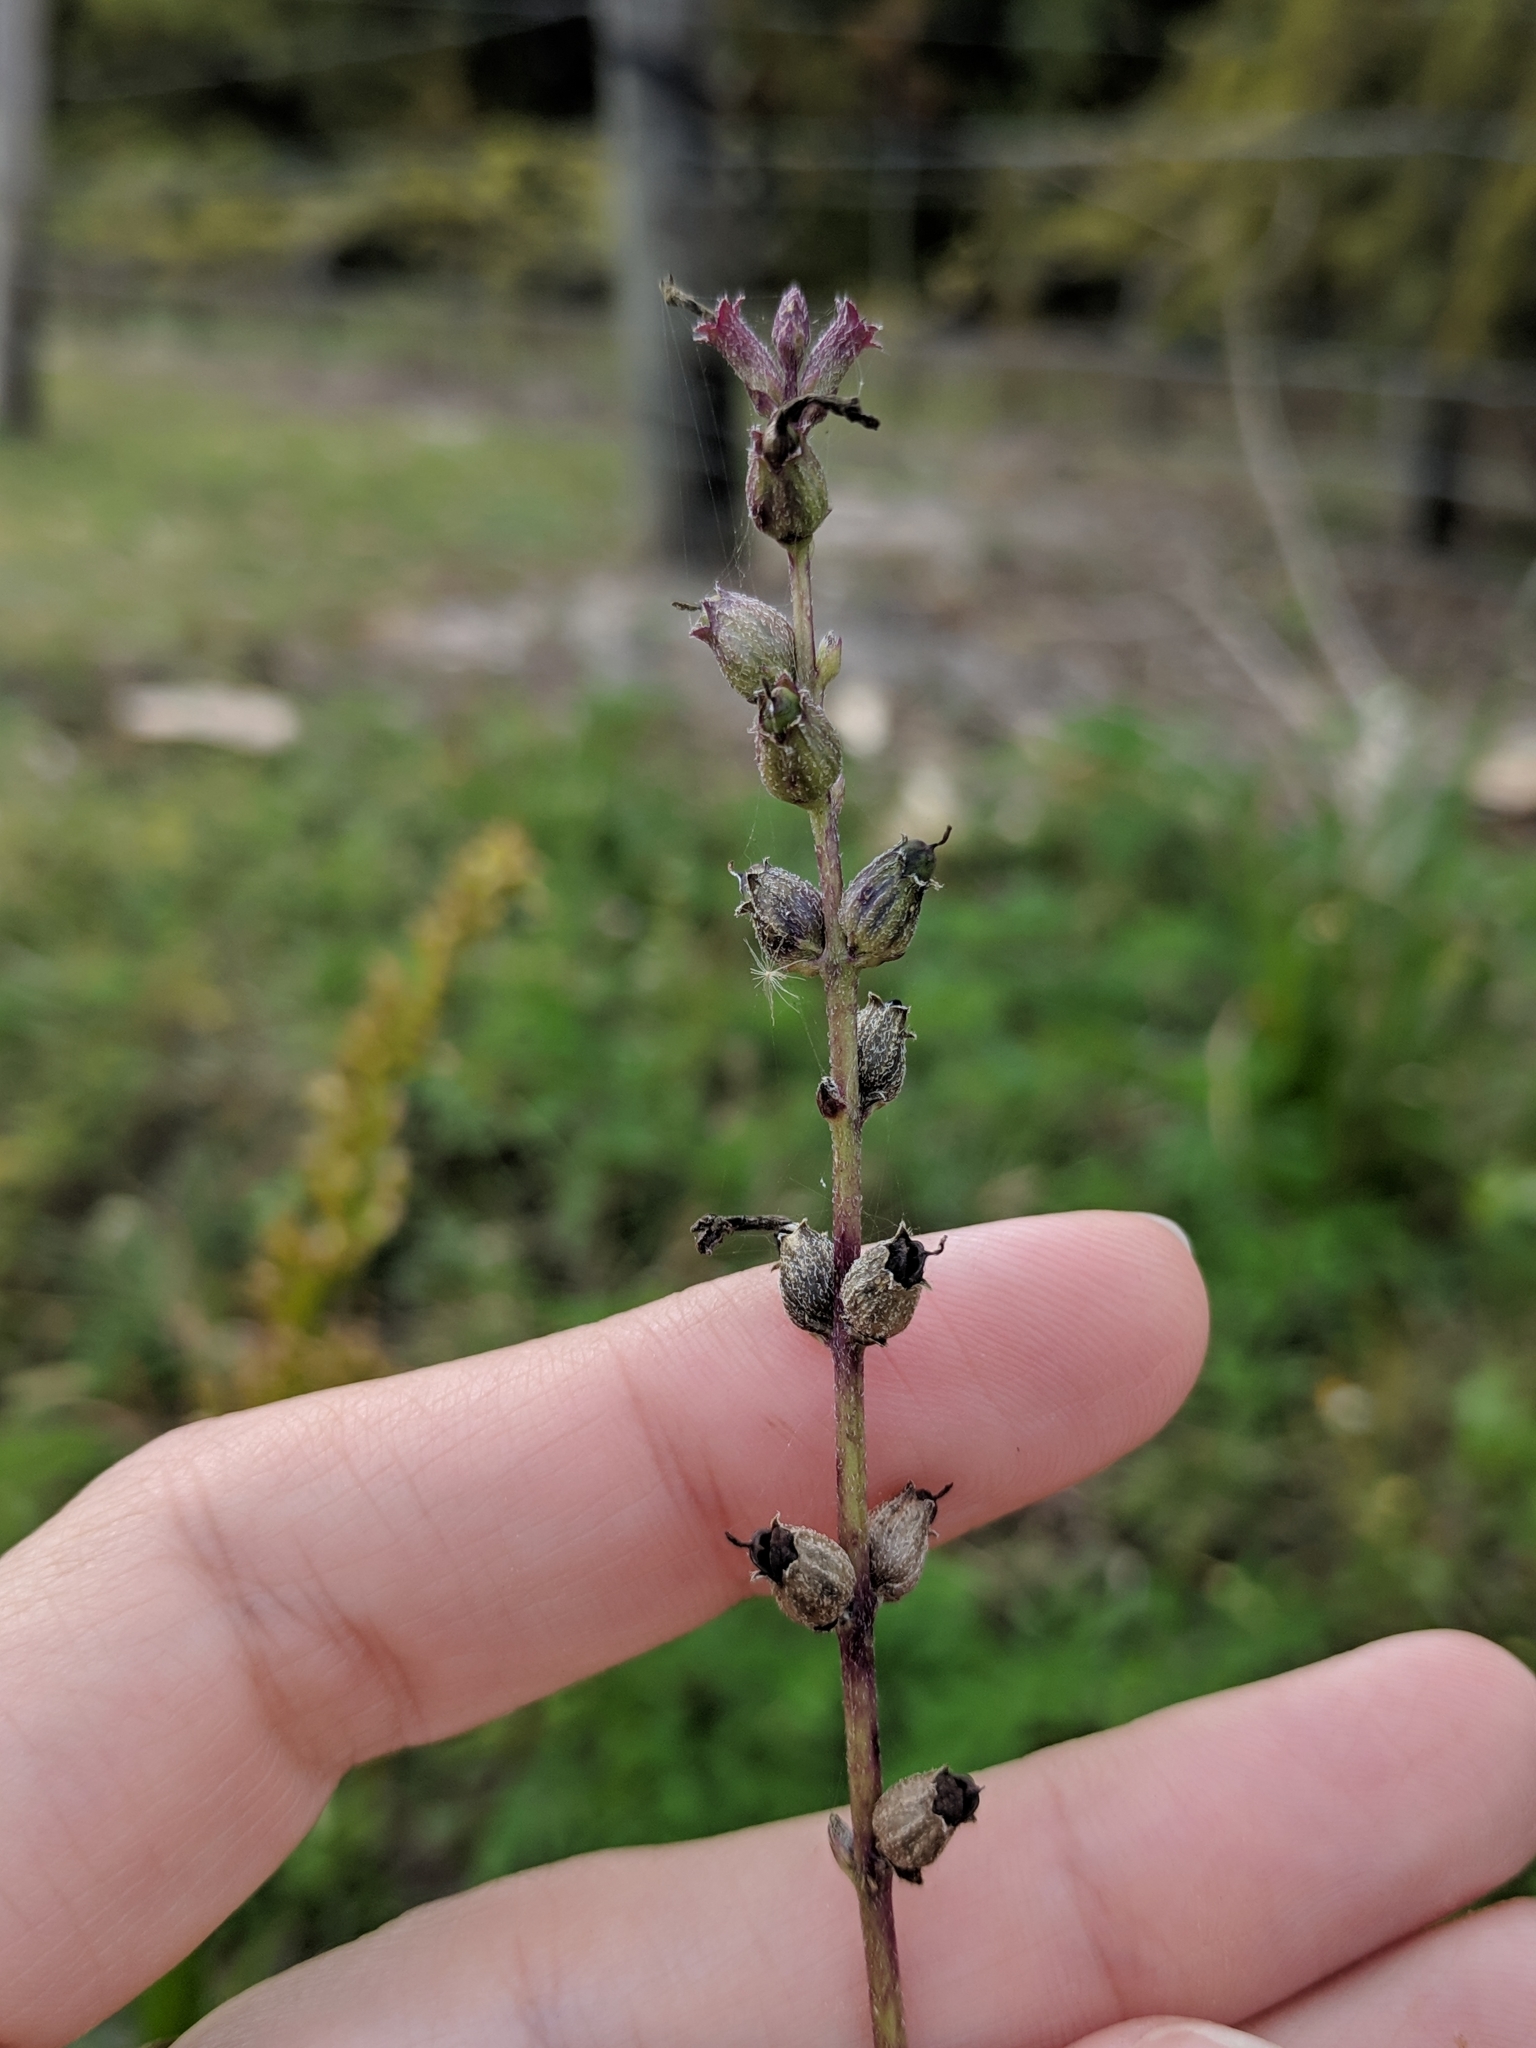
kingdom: Plantae
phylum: Tracheophyta
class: Magnoliopsida
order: Lamiales
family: Orobanchaceae
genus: Buchnera
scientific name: Buchnera floridana
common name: Florida bluehearts
